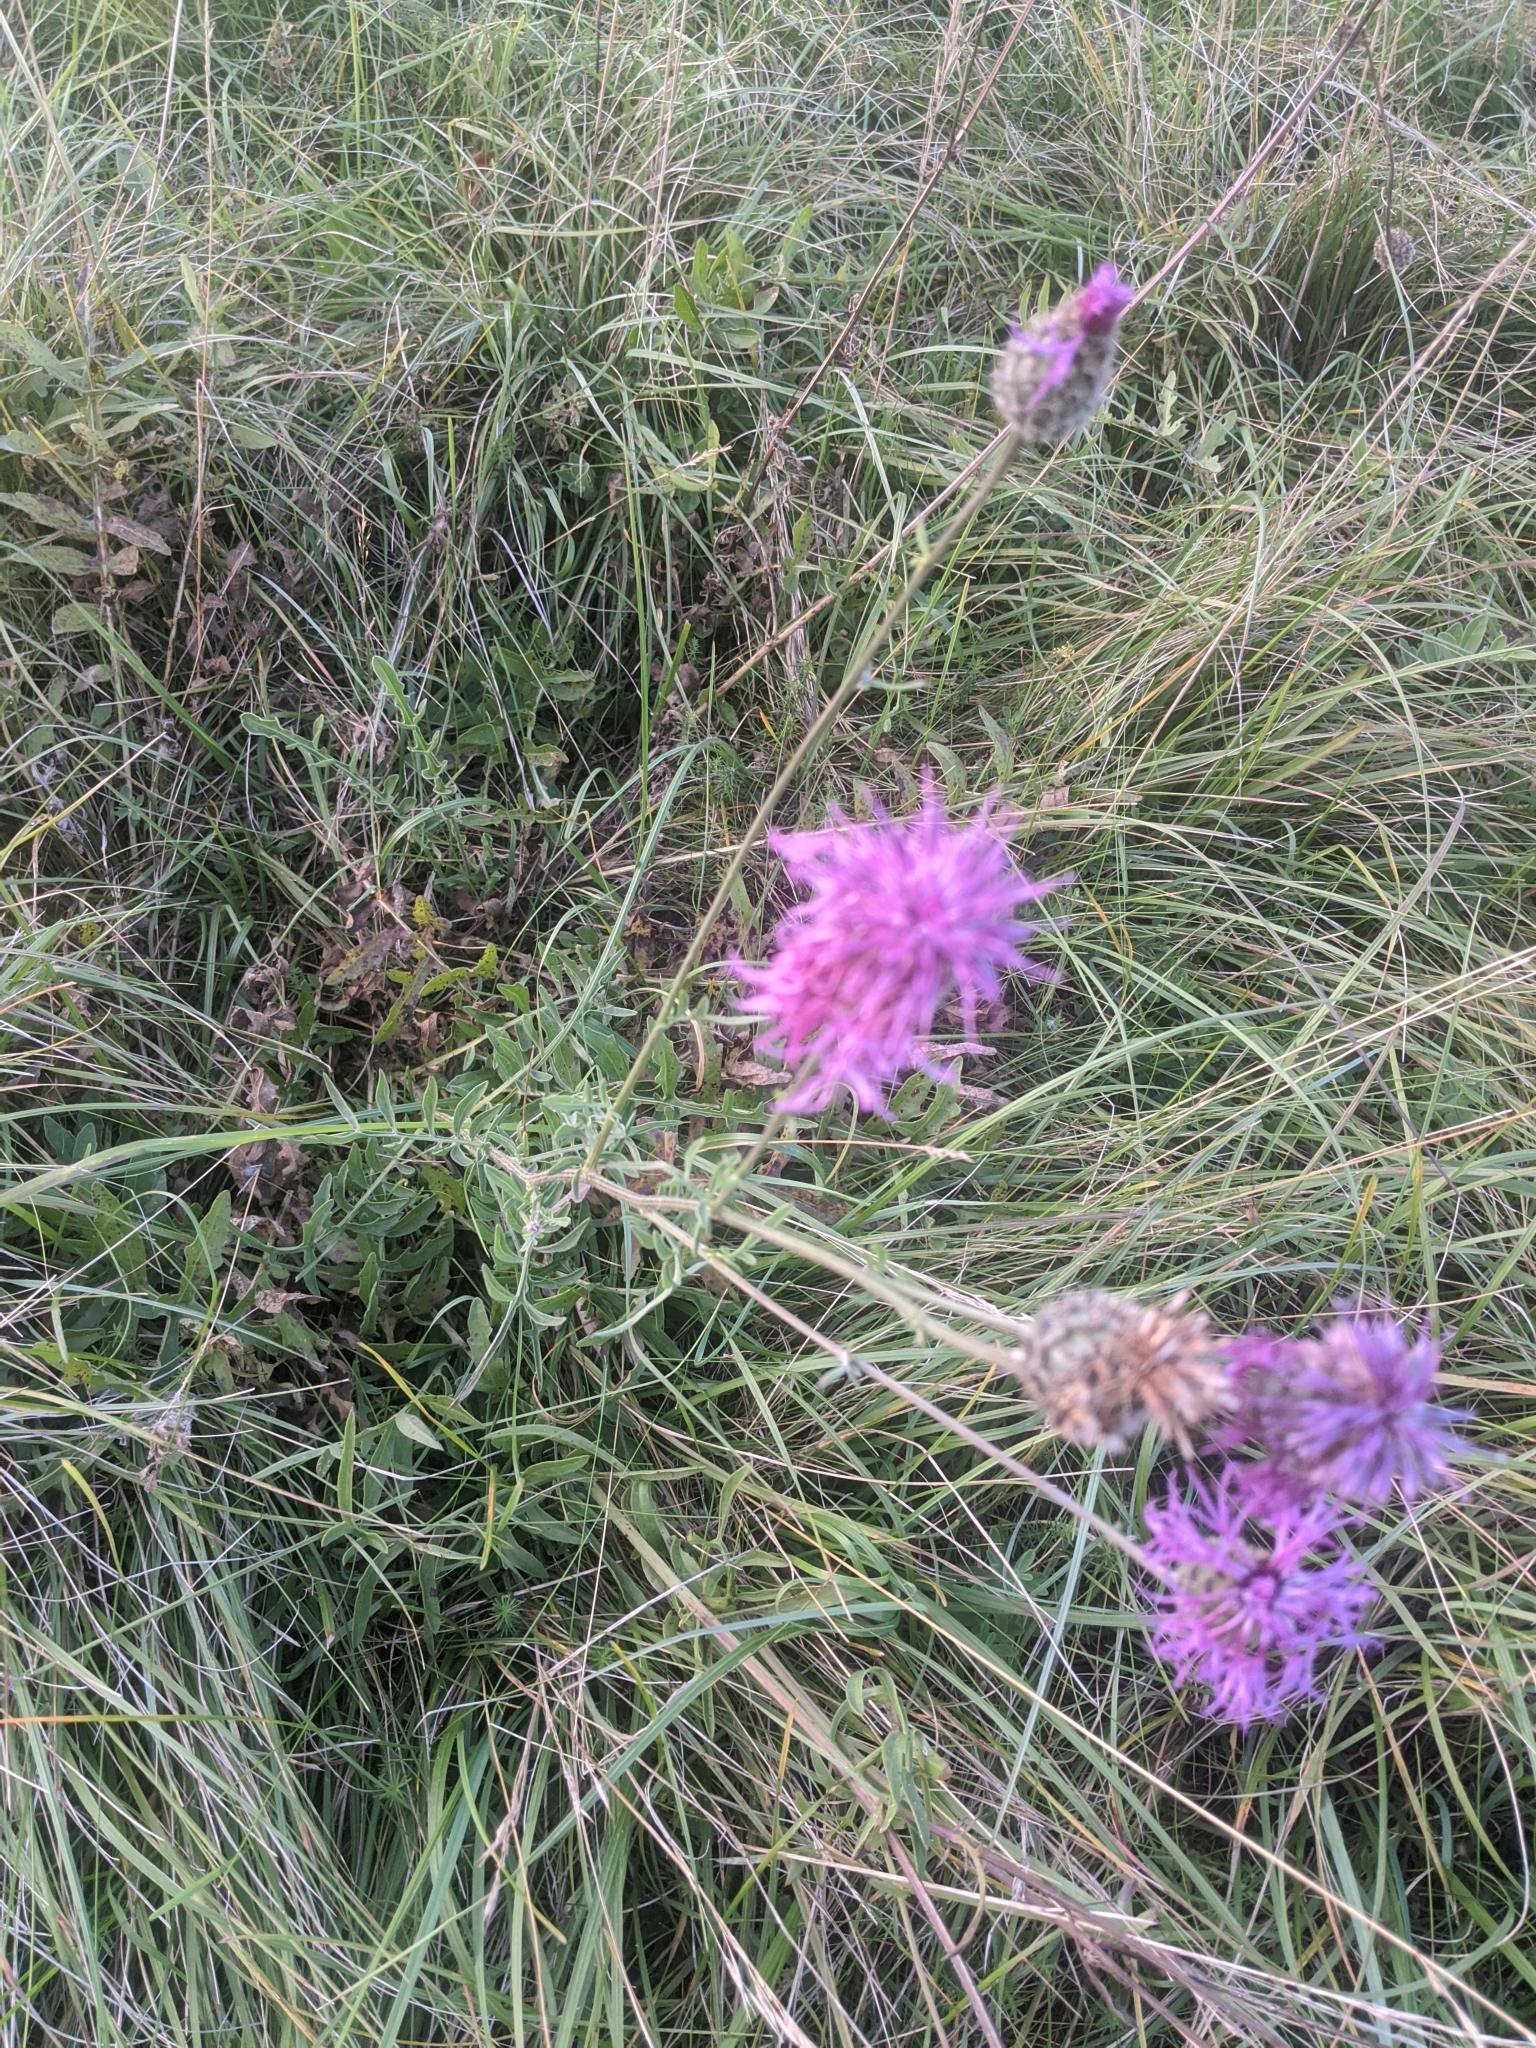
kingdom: Plantae
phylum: Tracheophyta
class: Magnoliopsida
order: Asterales
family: Asteraceae
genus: Centaurea
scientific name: Centaurea scabiosa
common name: Greater knapweed
